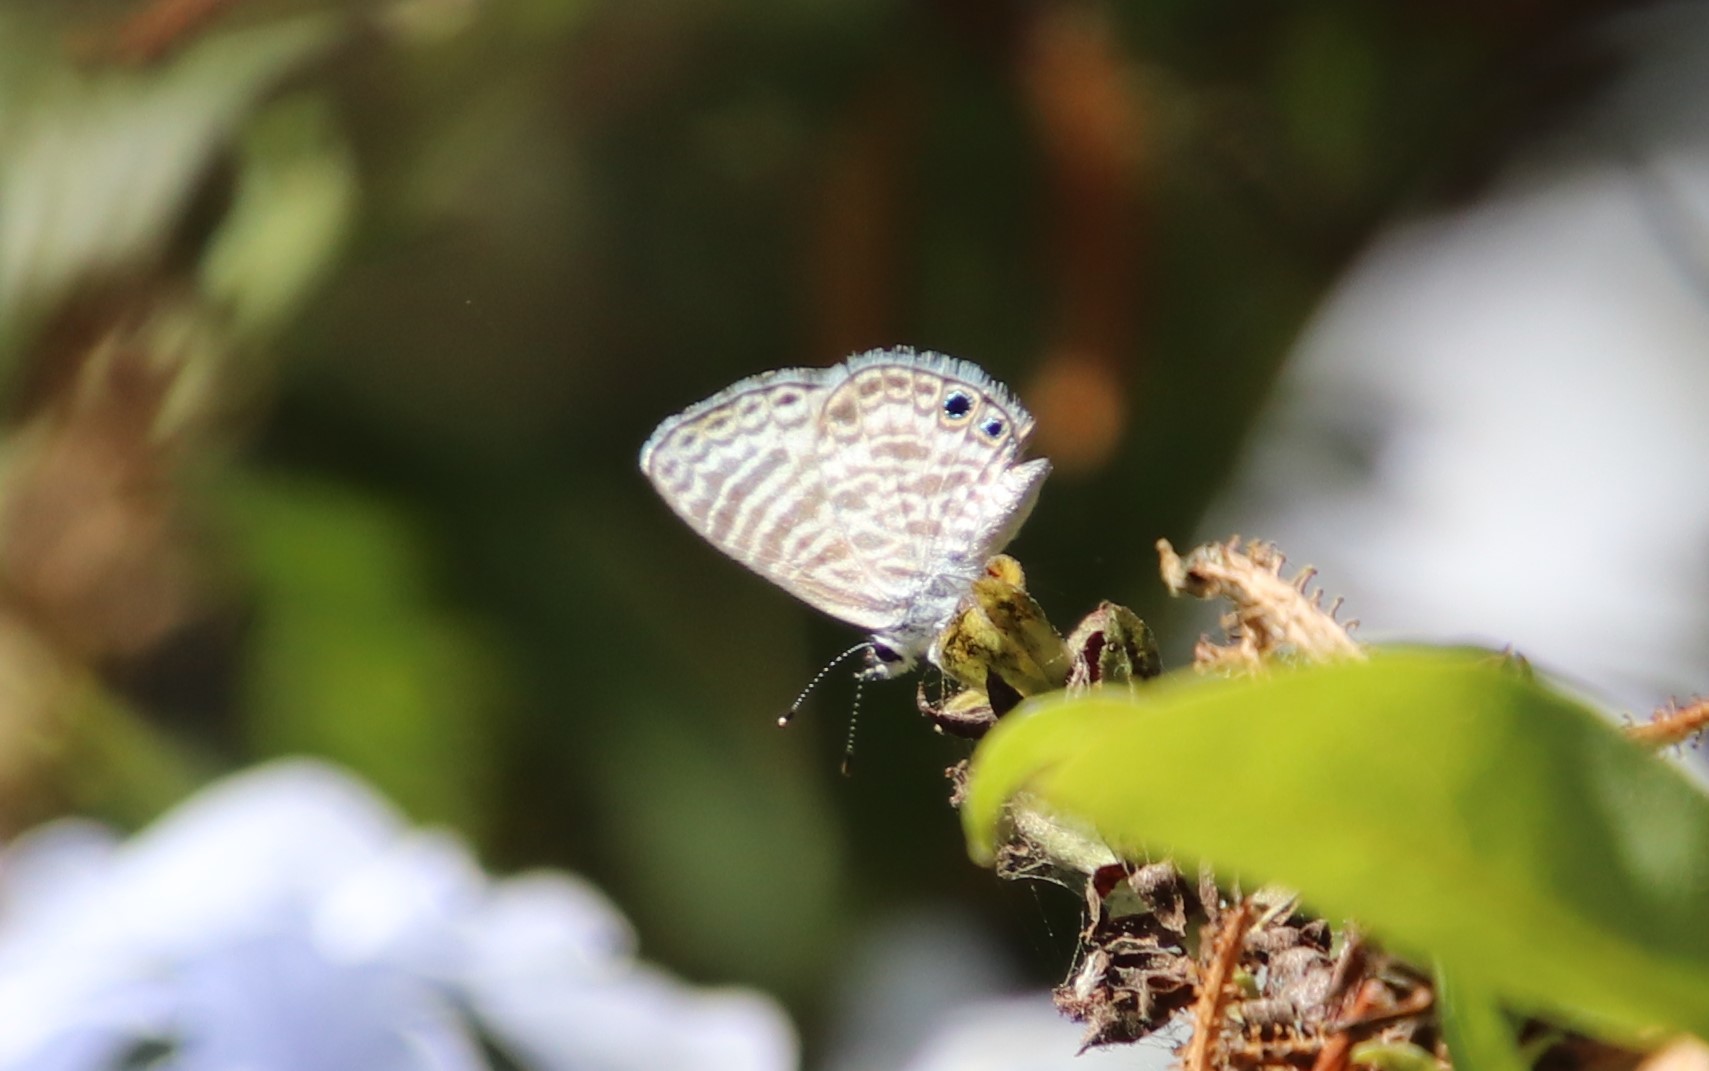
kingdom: Animalia
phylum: Arthropoda
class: Insecta
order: Lepidoptera
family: Lycaenidae
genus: Leptotes
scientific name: Leptotes marina
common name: Marine blue
